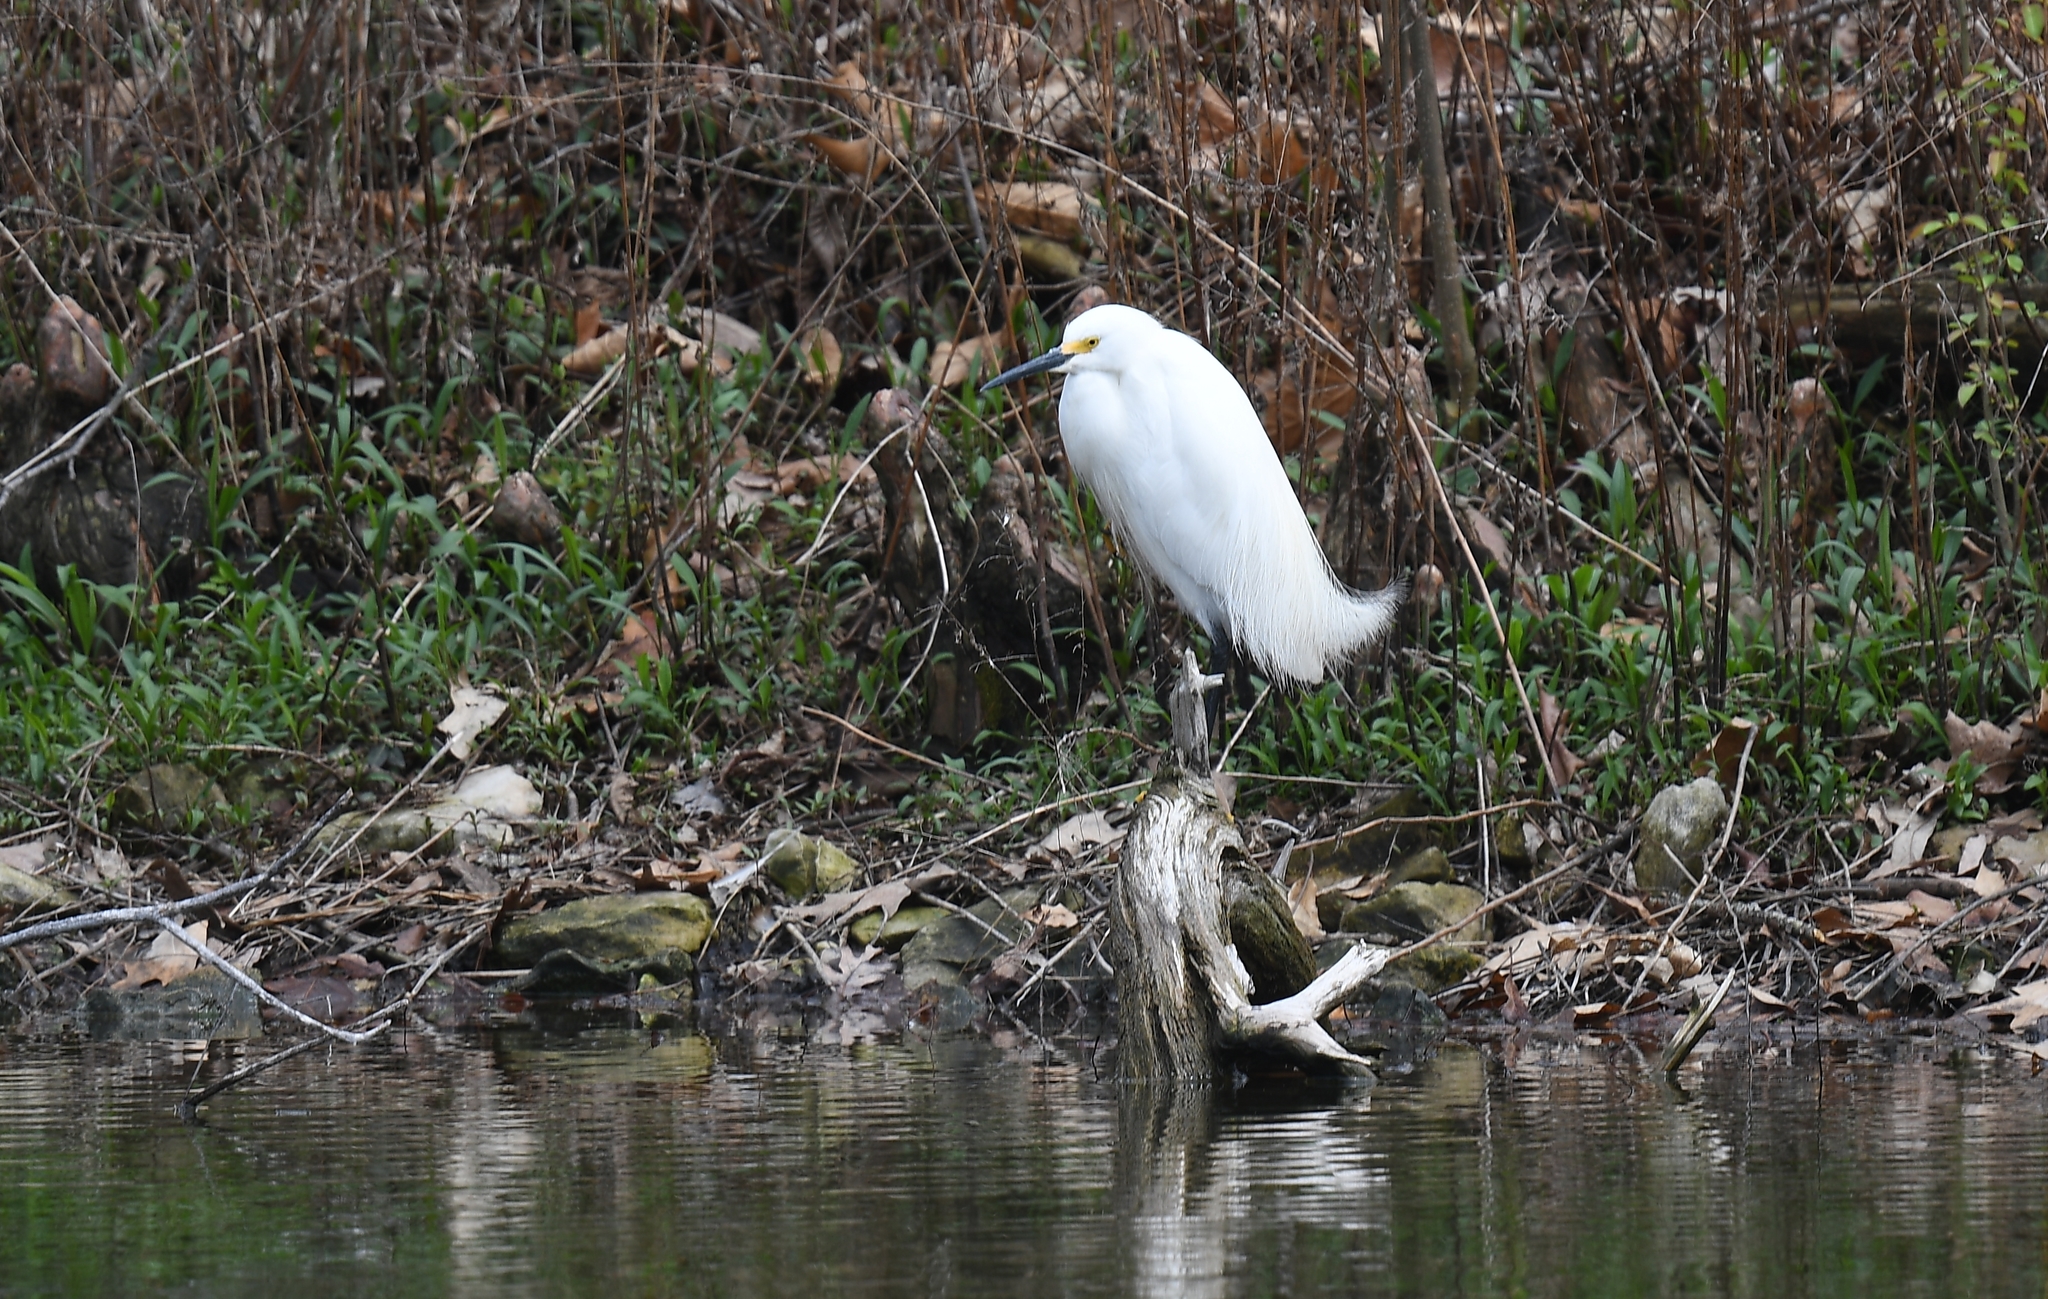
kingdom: Animalia
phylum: Chordata
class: Aves
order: Pelecaniformes
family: Ardeidae
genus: Egretta
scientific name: Egretta thula
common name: Snowy egret
